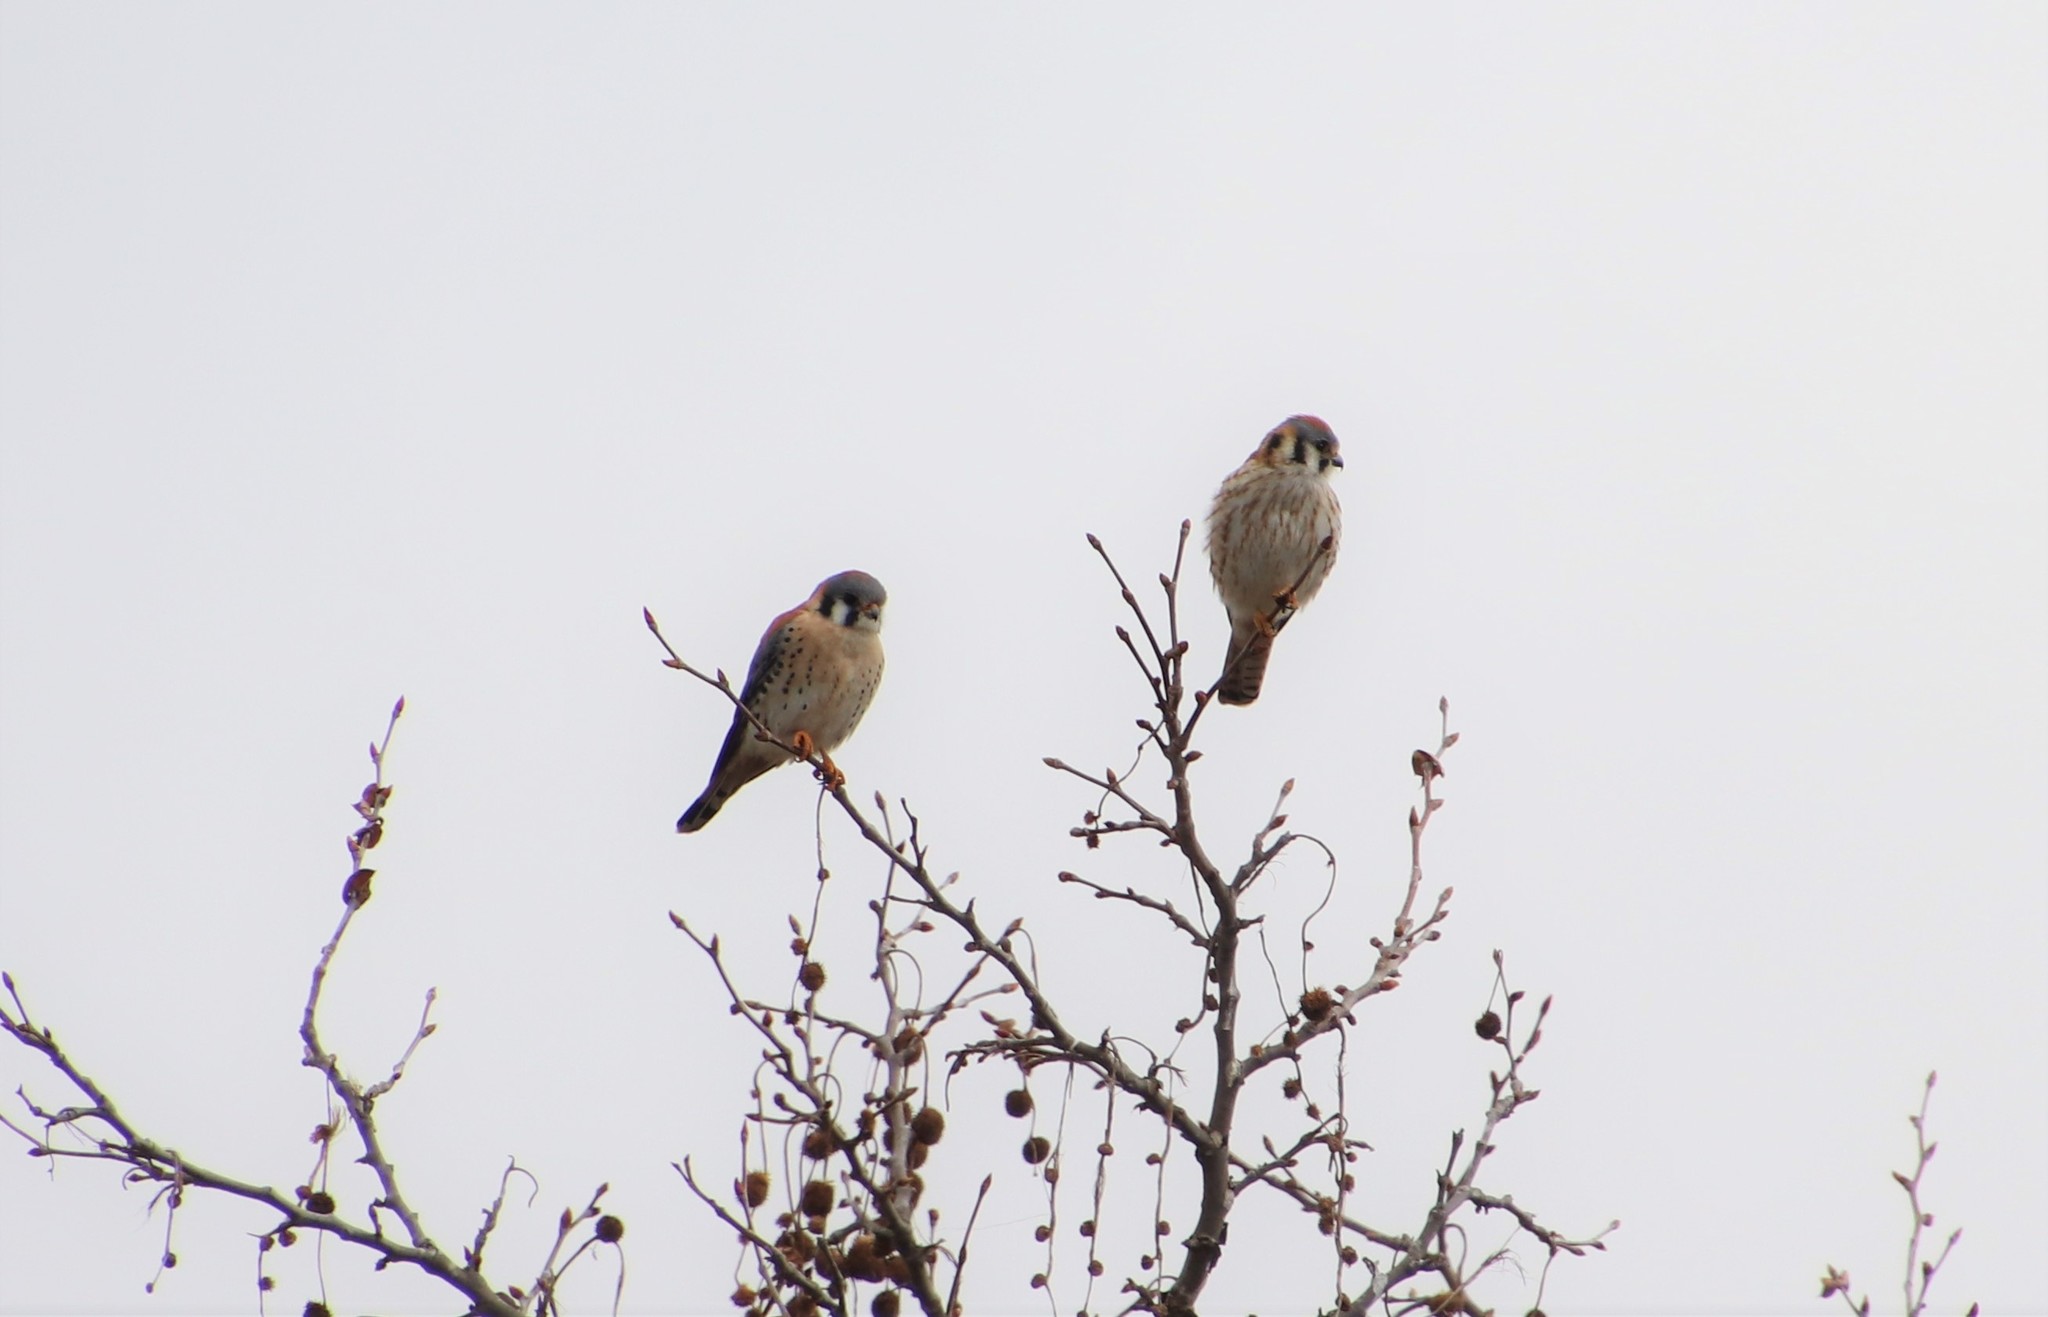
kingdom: Animalia
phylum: Chordata
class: Aves
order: Falconiformes
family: Falconidae
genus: Falco
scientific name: Falco sparverius
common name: American kestrel
